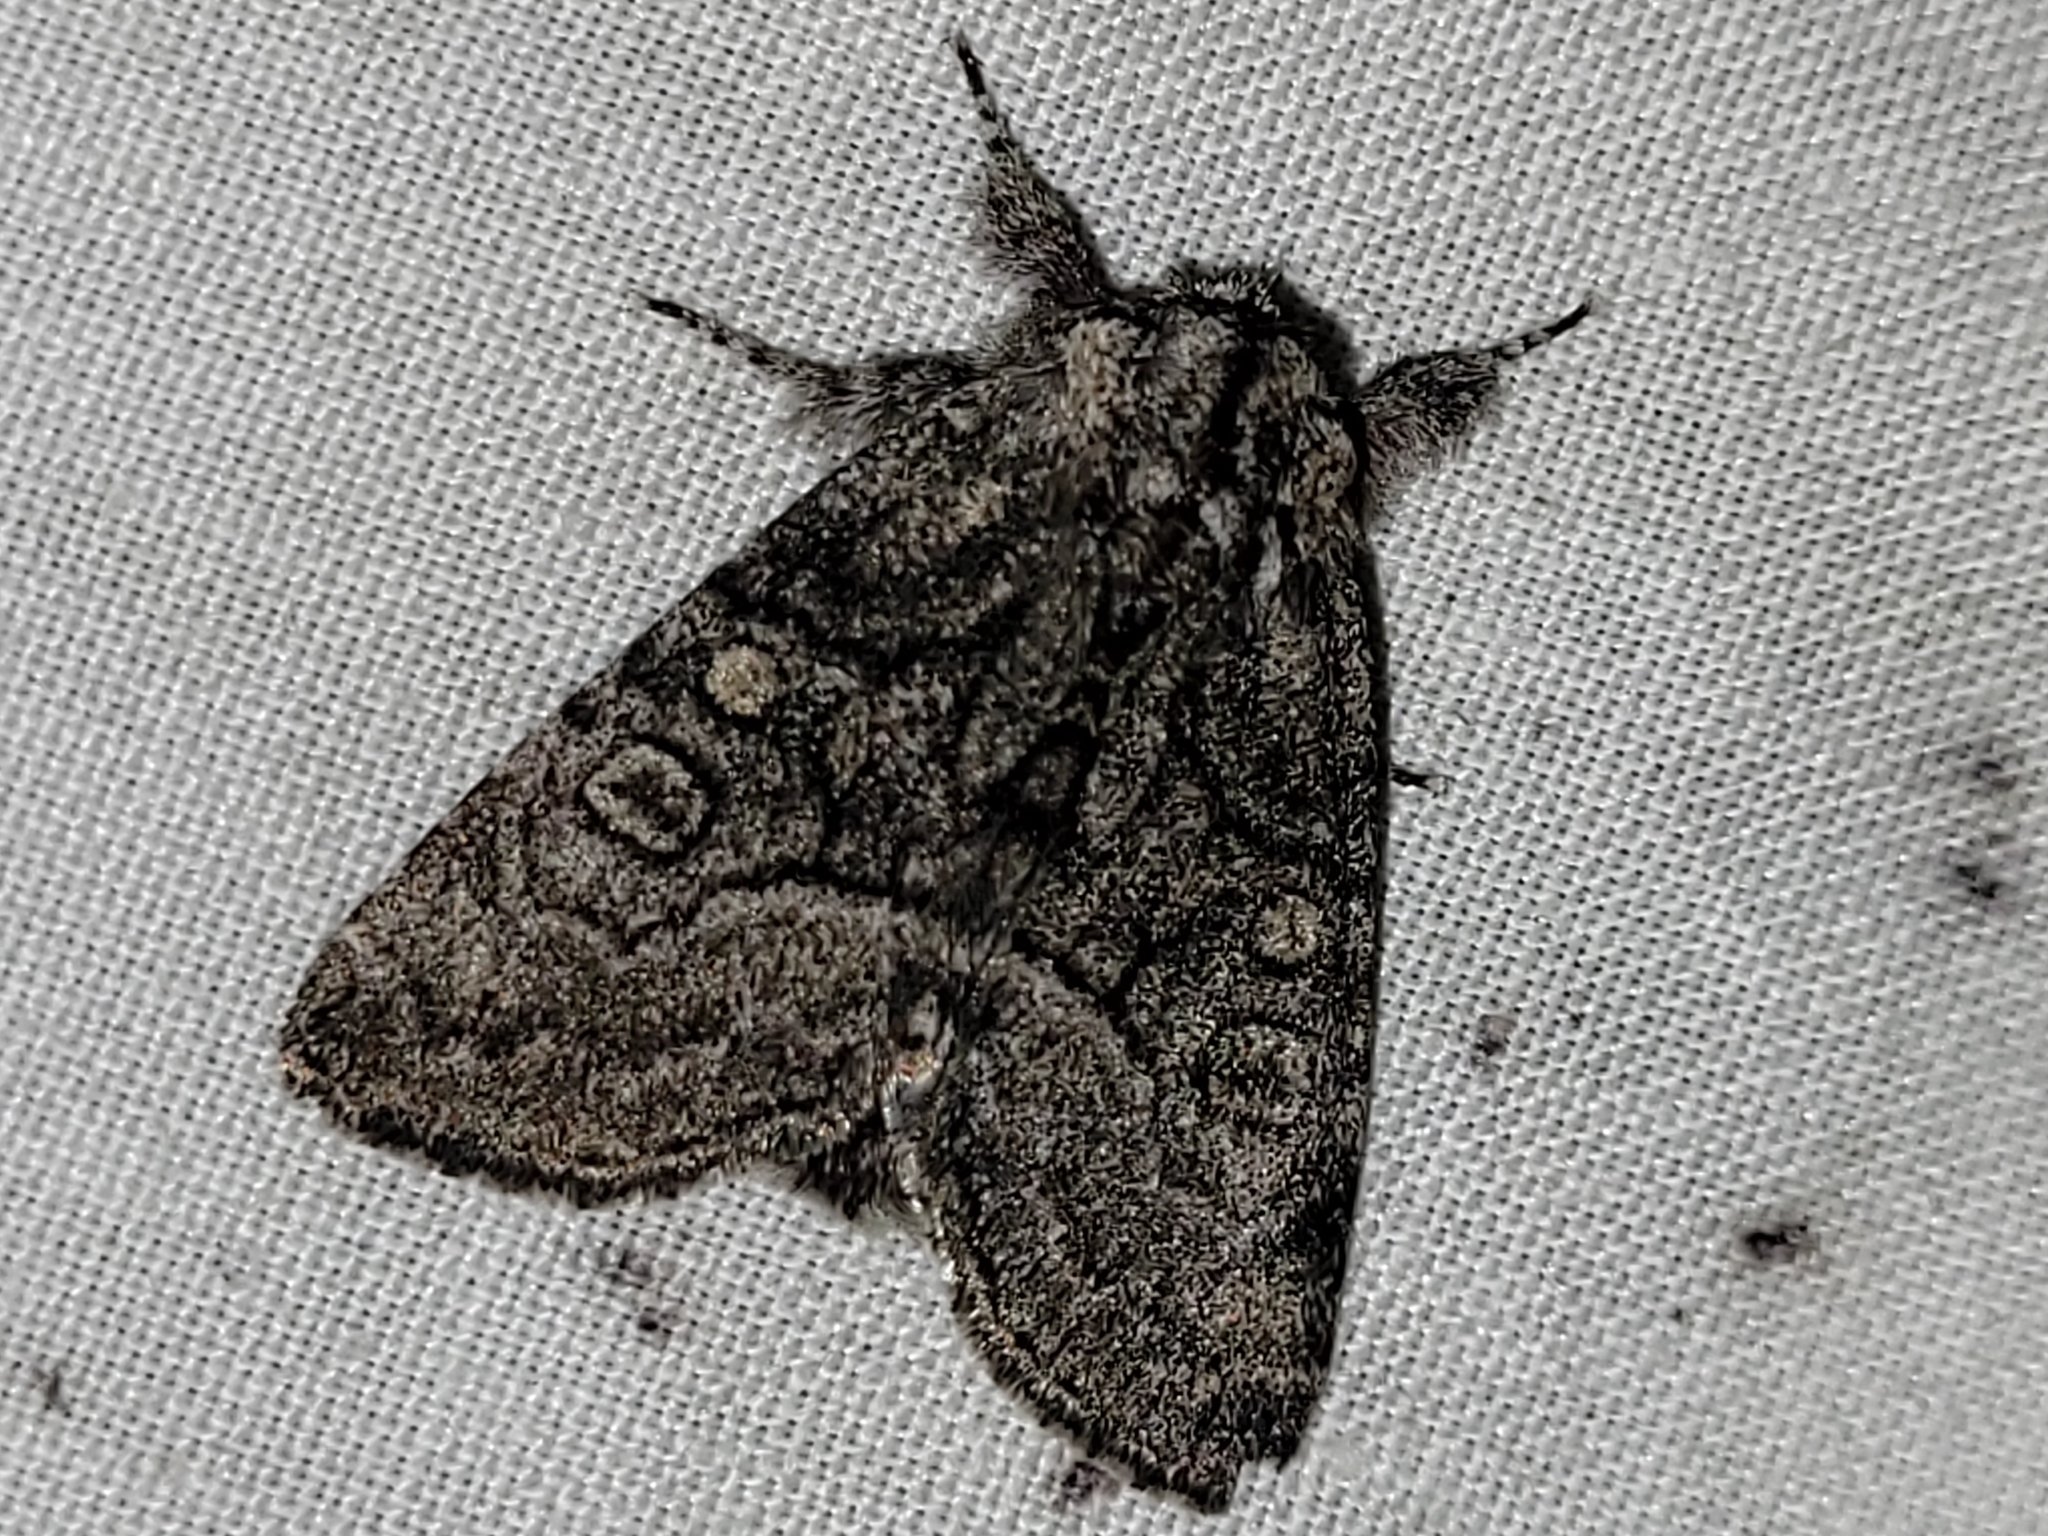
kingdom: Animalia
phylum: Arthropoda
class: Insecta
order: Lepidoptera
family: Noctuidae
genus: Raphia
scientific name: Raphia frater
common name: Brother
